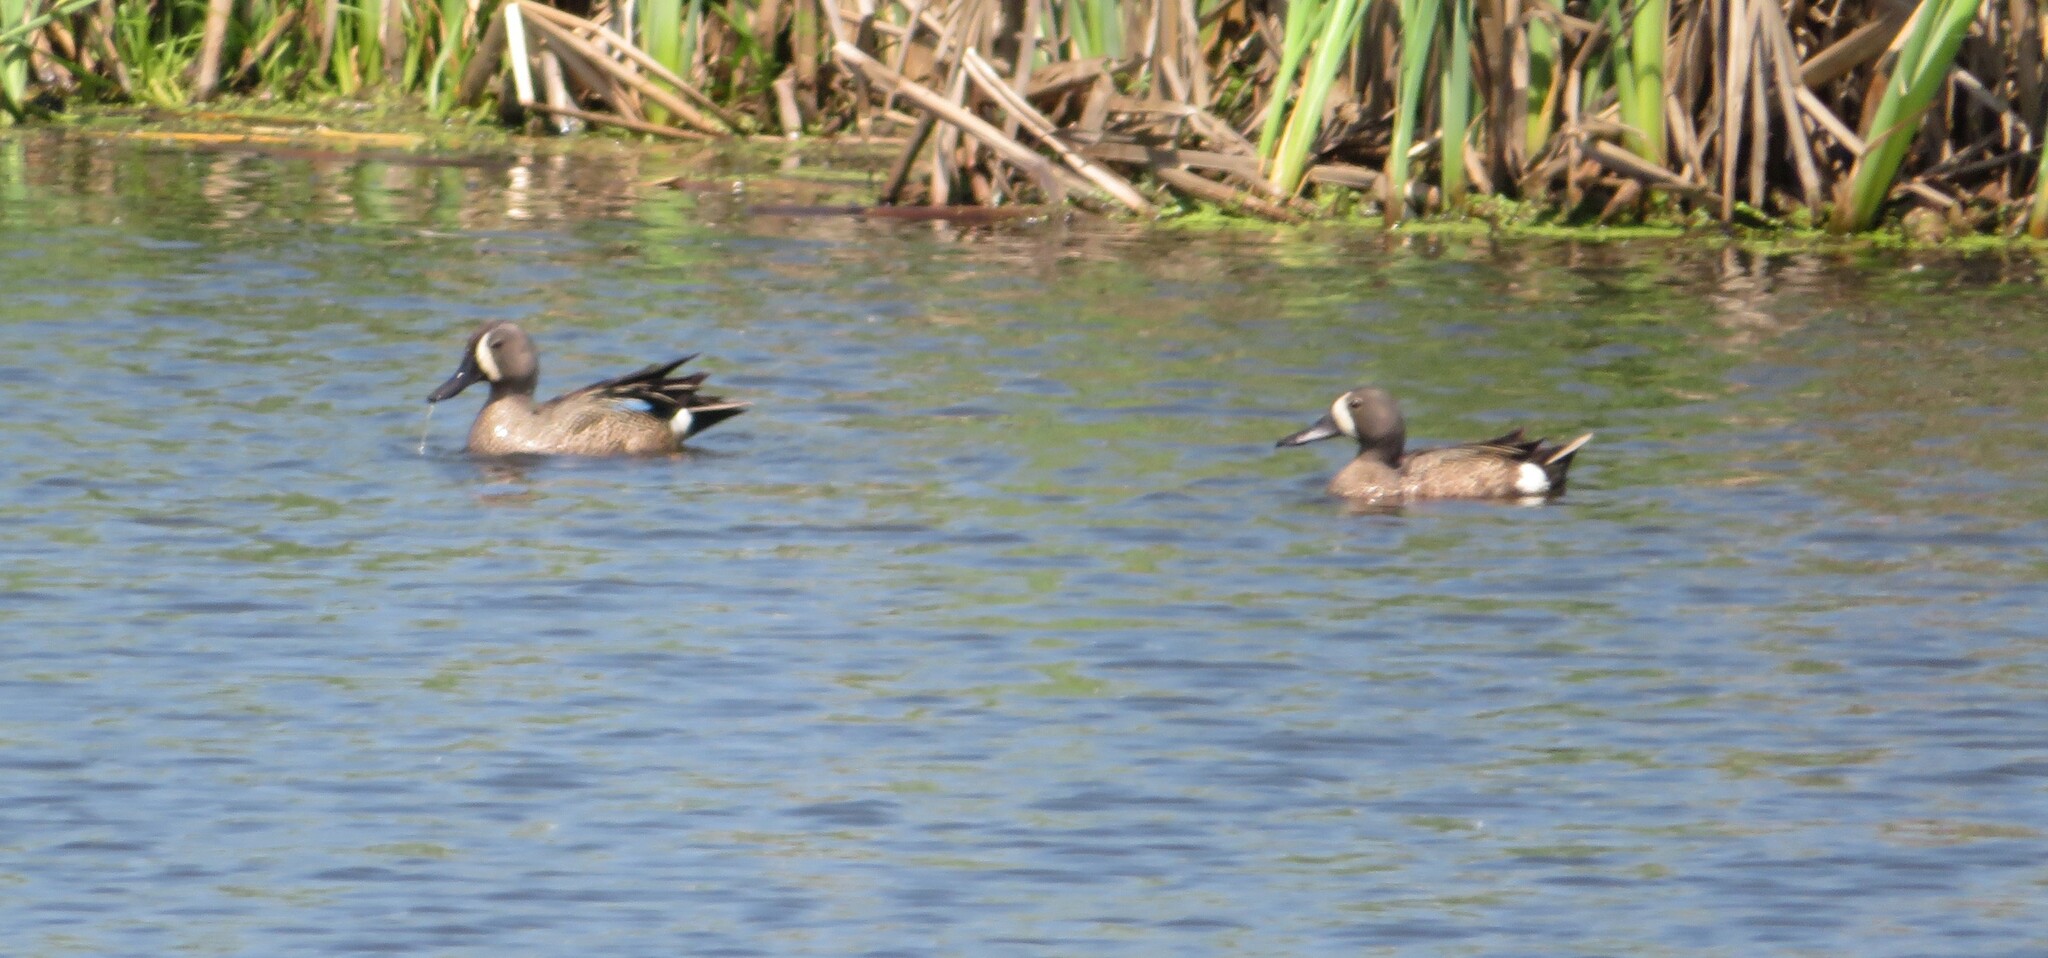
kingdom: Animalia
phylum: Chordata
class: Aves
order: Anseriformes
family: Anatidae
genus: Spatula
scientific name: Spatula discors
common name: Blue-winged teal
